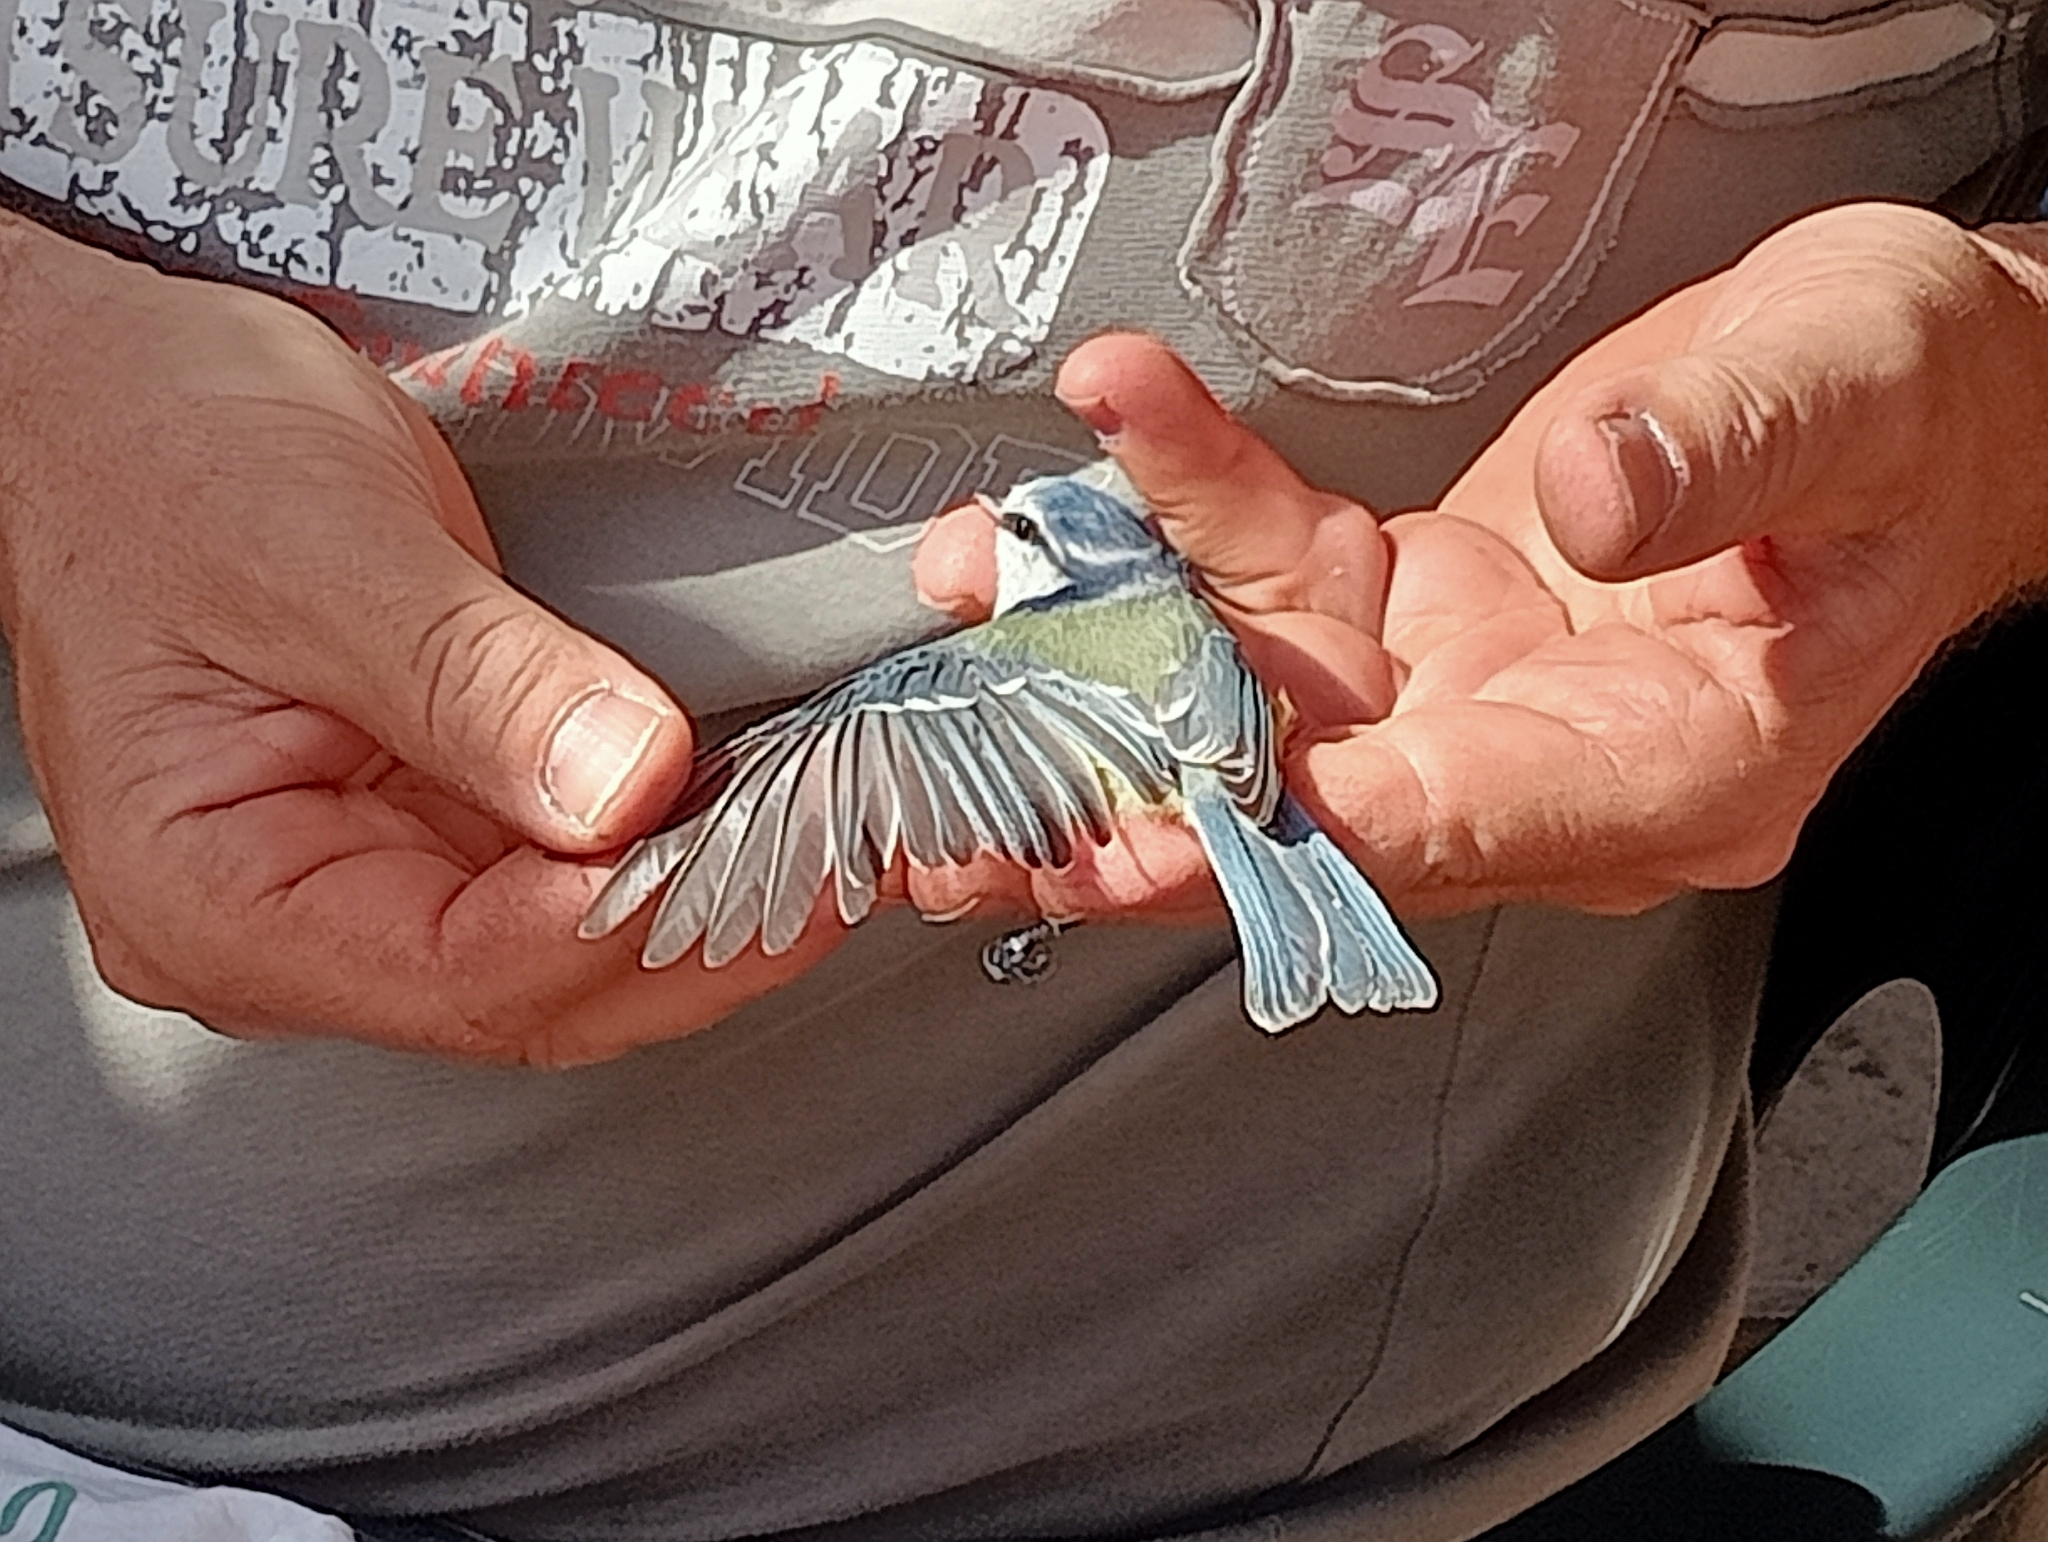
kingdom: Animalia
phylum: Chordata
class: Aves
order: Passeriformes
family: Paridae
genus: Cyanistes
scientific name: Cyanistes caeruleus
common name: Eurasian blue tit
